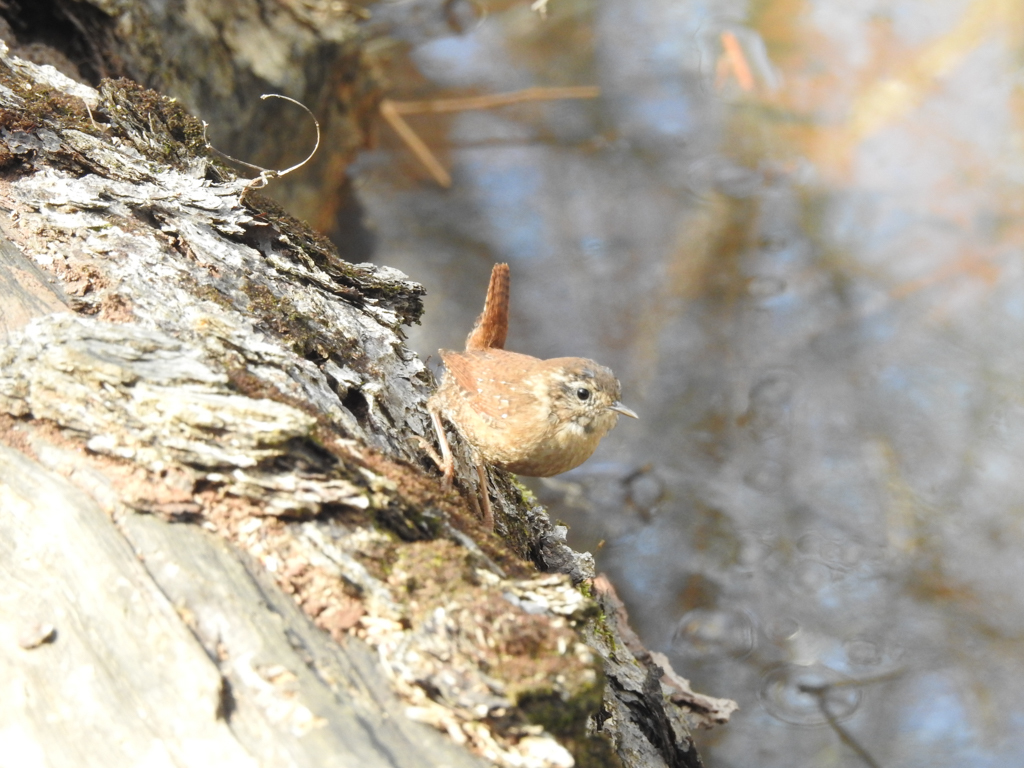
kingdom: Animalia
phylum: Chordata
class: Aves
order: Passeriformes
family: Troglodytidae
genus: Troglodytes
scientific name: Troglodytes hiemalis
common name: Winter wren
